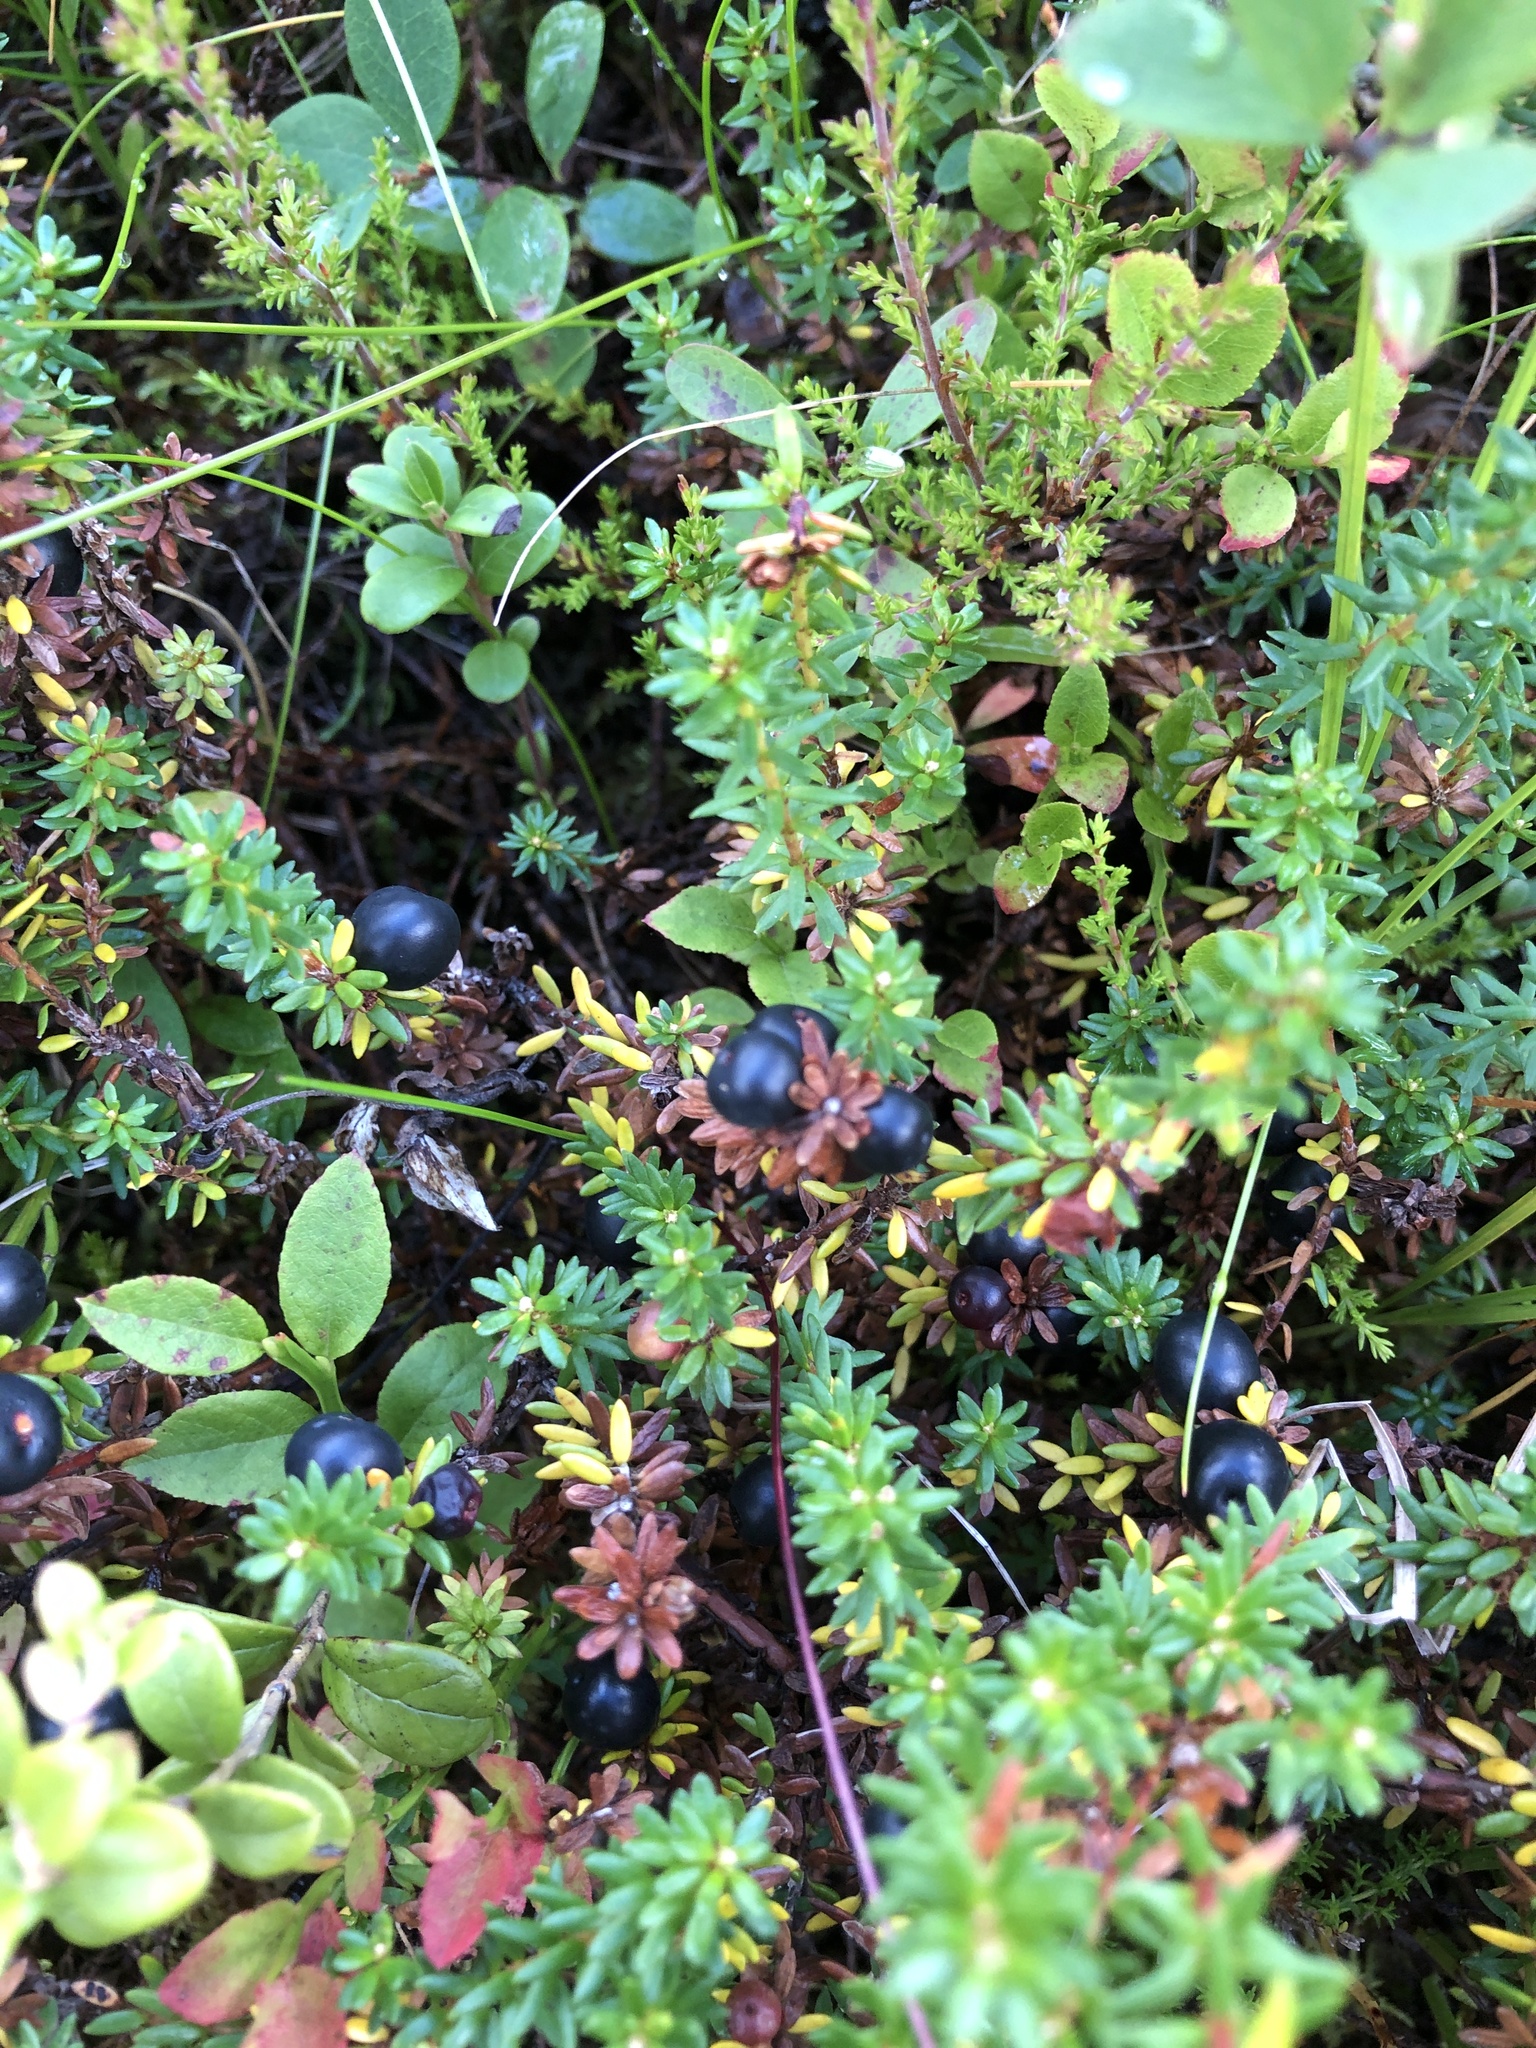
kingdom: Plantae
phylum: Tracheophyta
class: Magnoliopsida
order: Ericales
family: Ericaceae
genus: Empetrum
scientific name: Empetrum nigrum
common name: Black crowberry
